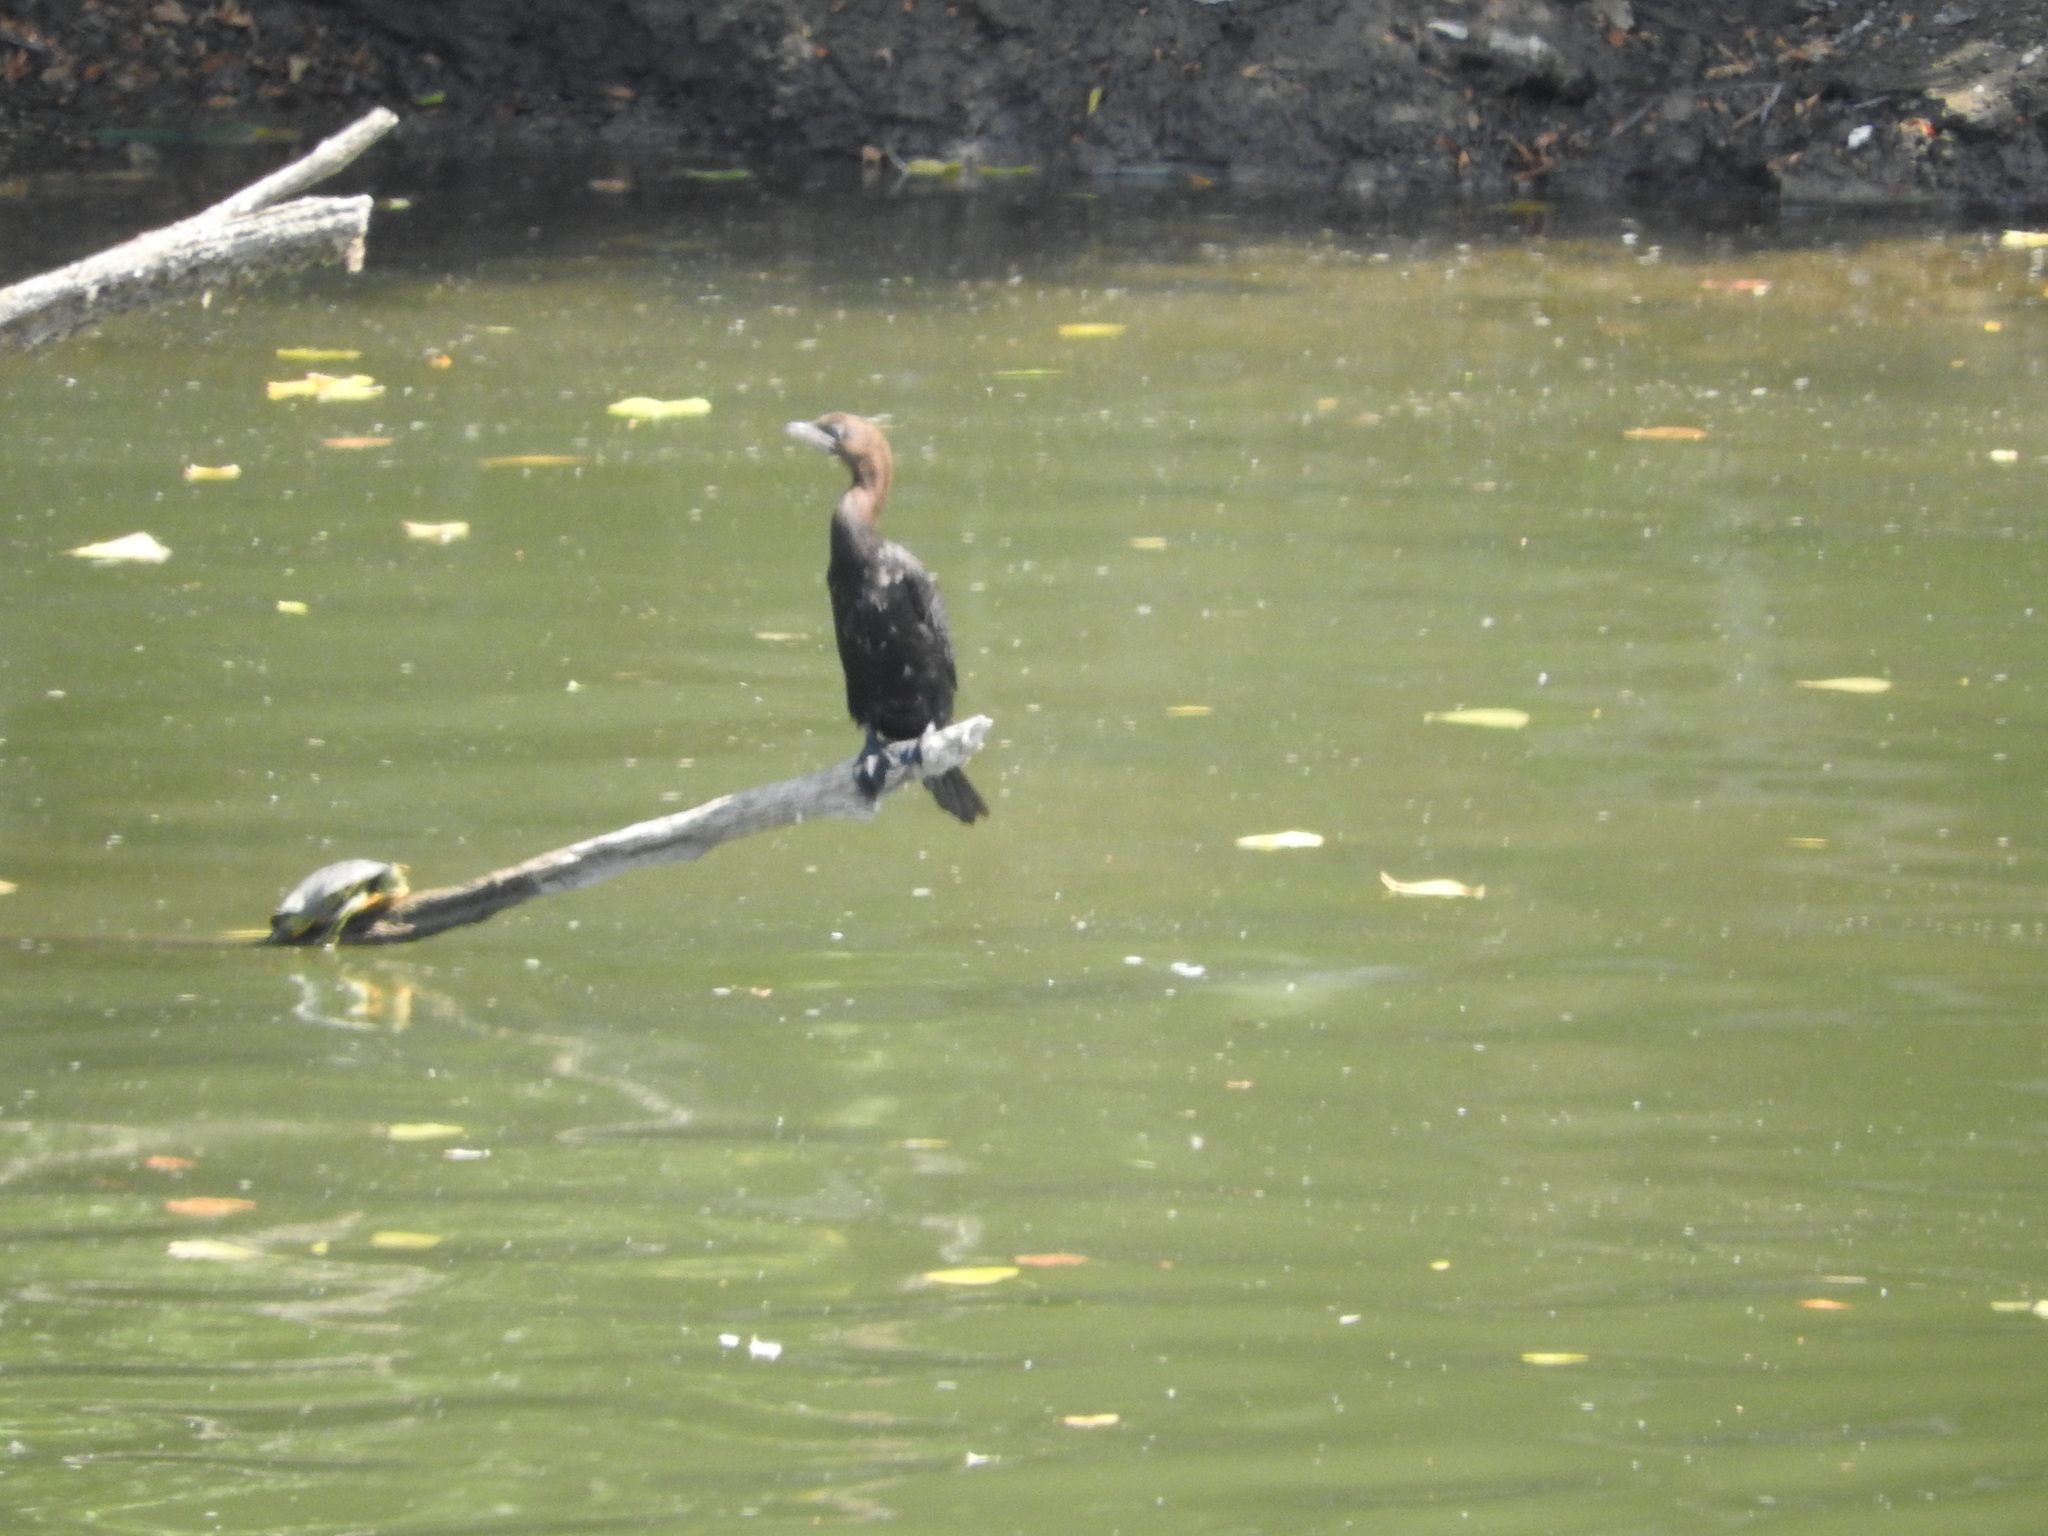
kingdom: Animalia
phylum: Chordata
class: Aves
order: Suliformes
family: Phalacrocoracidae
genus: Microcarbo
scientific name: Microcarbo pygmaeus
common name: Pygmy cormorant
